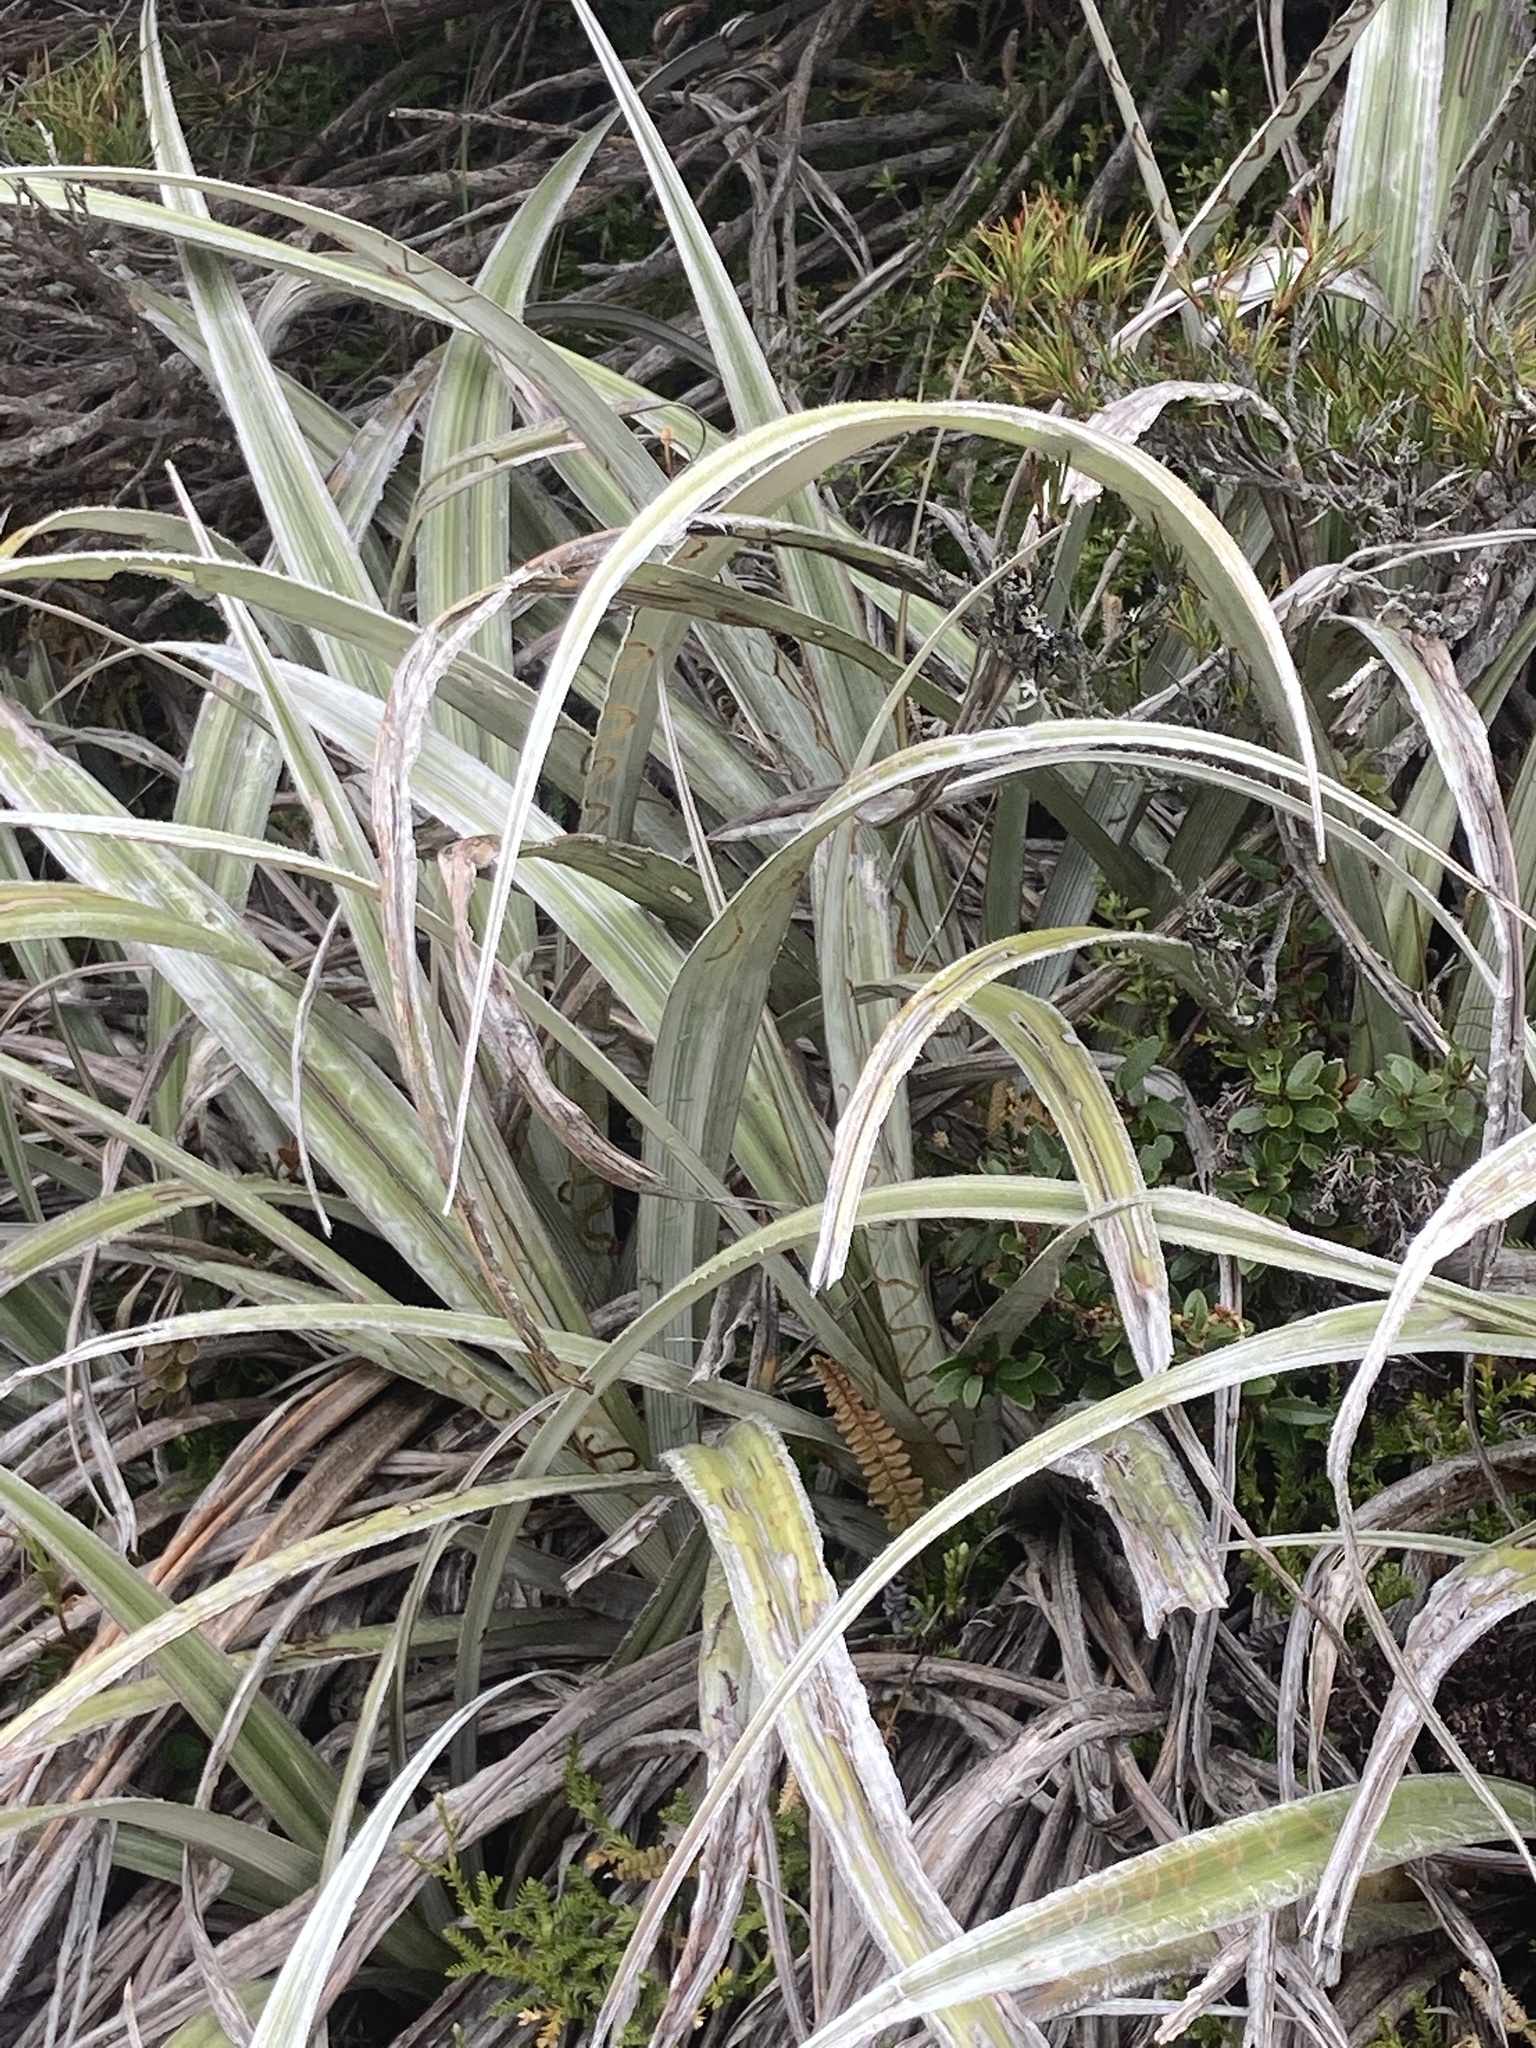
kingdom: Plantae
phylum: Tracheophyta
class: Liliopsida
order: Asparagales
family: Asteliaceae
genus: Astelia
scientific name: Astelia nervosa
